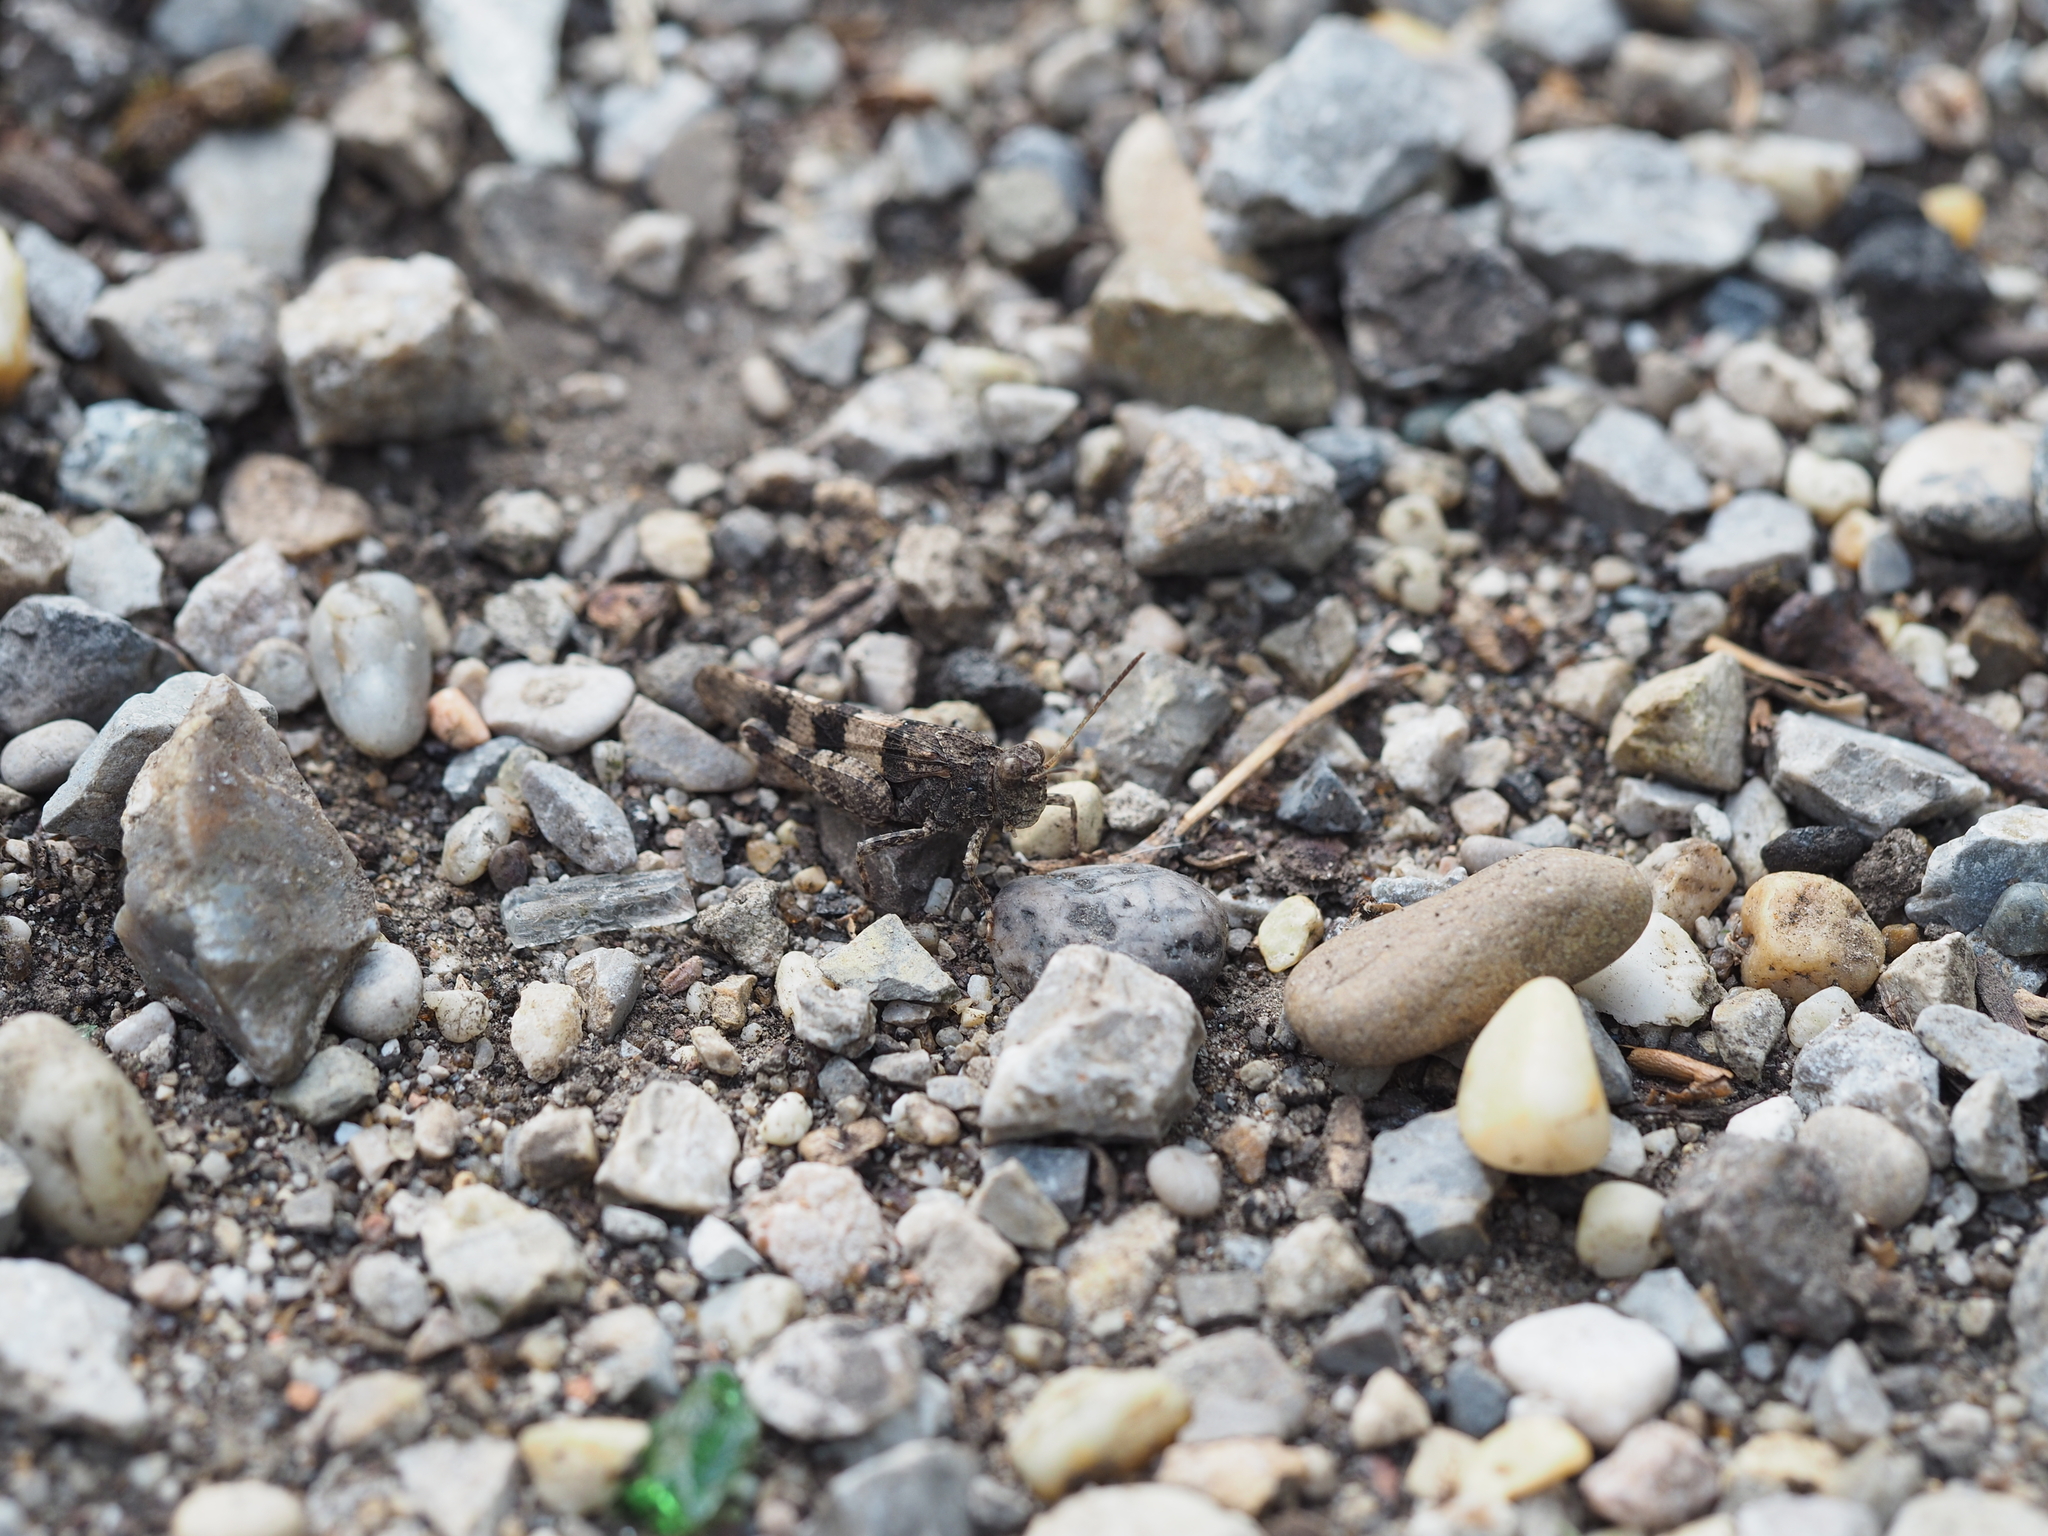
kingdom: Animalia
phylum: Arthropoda
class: Insecta
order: Orthoptera
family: Acrididae
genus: Oedipoda
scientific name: Oedipoda caerulescens
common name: Blue-winged grasshopper
